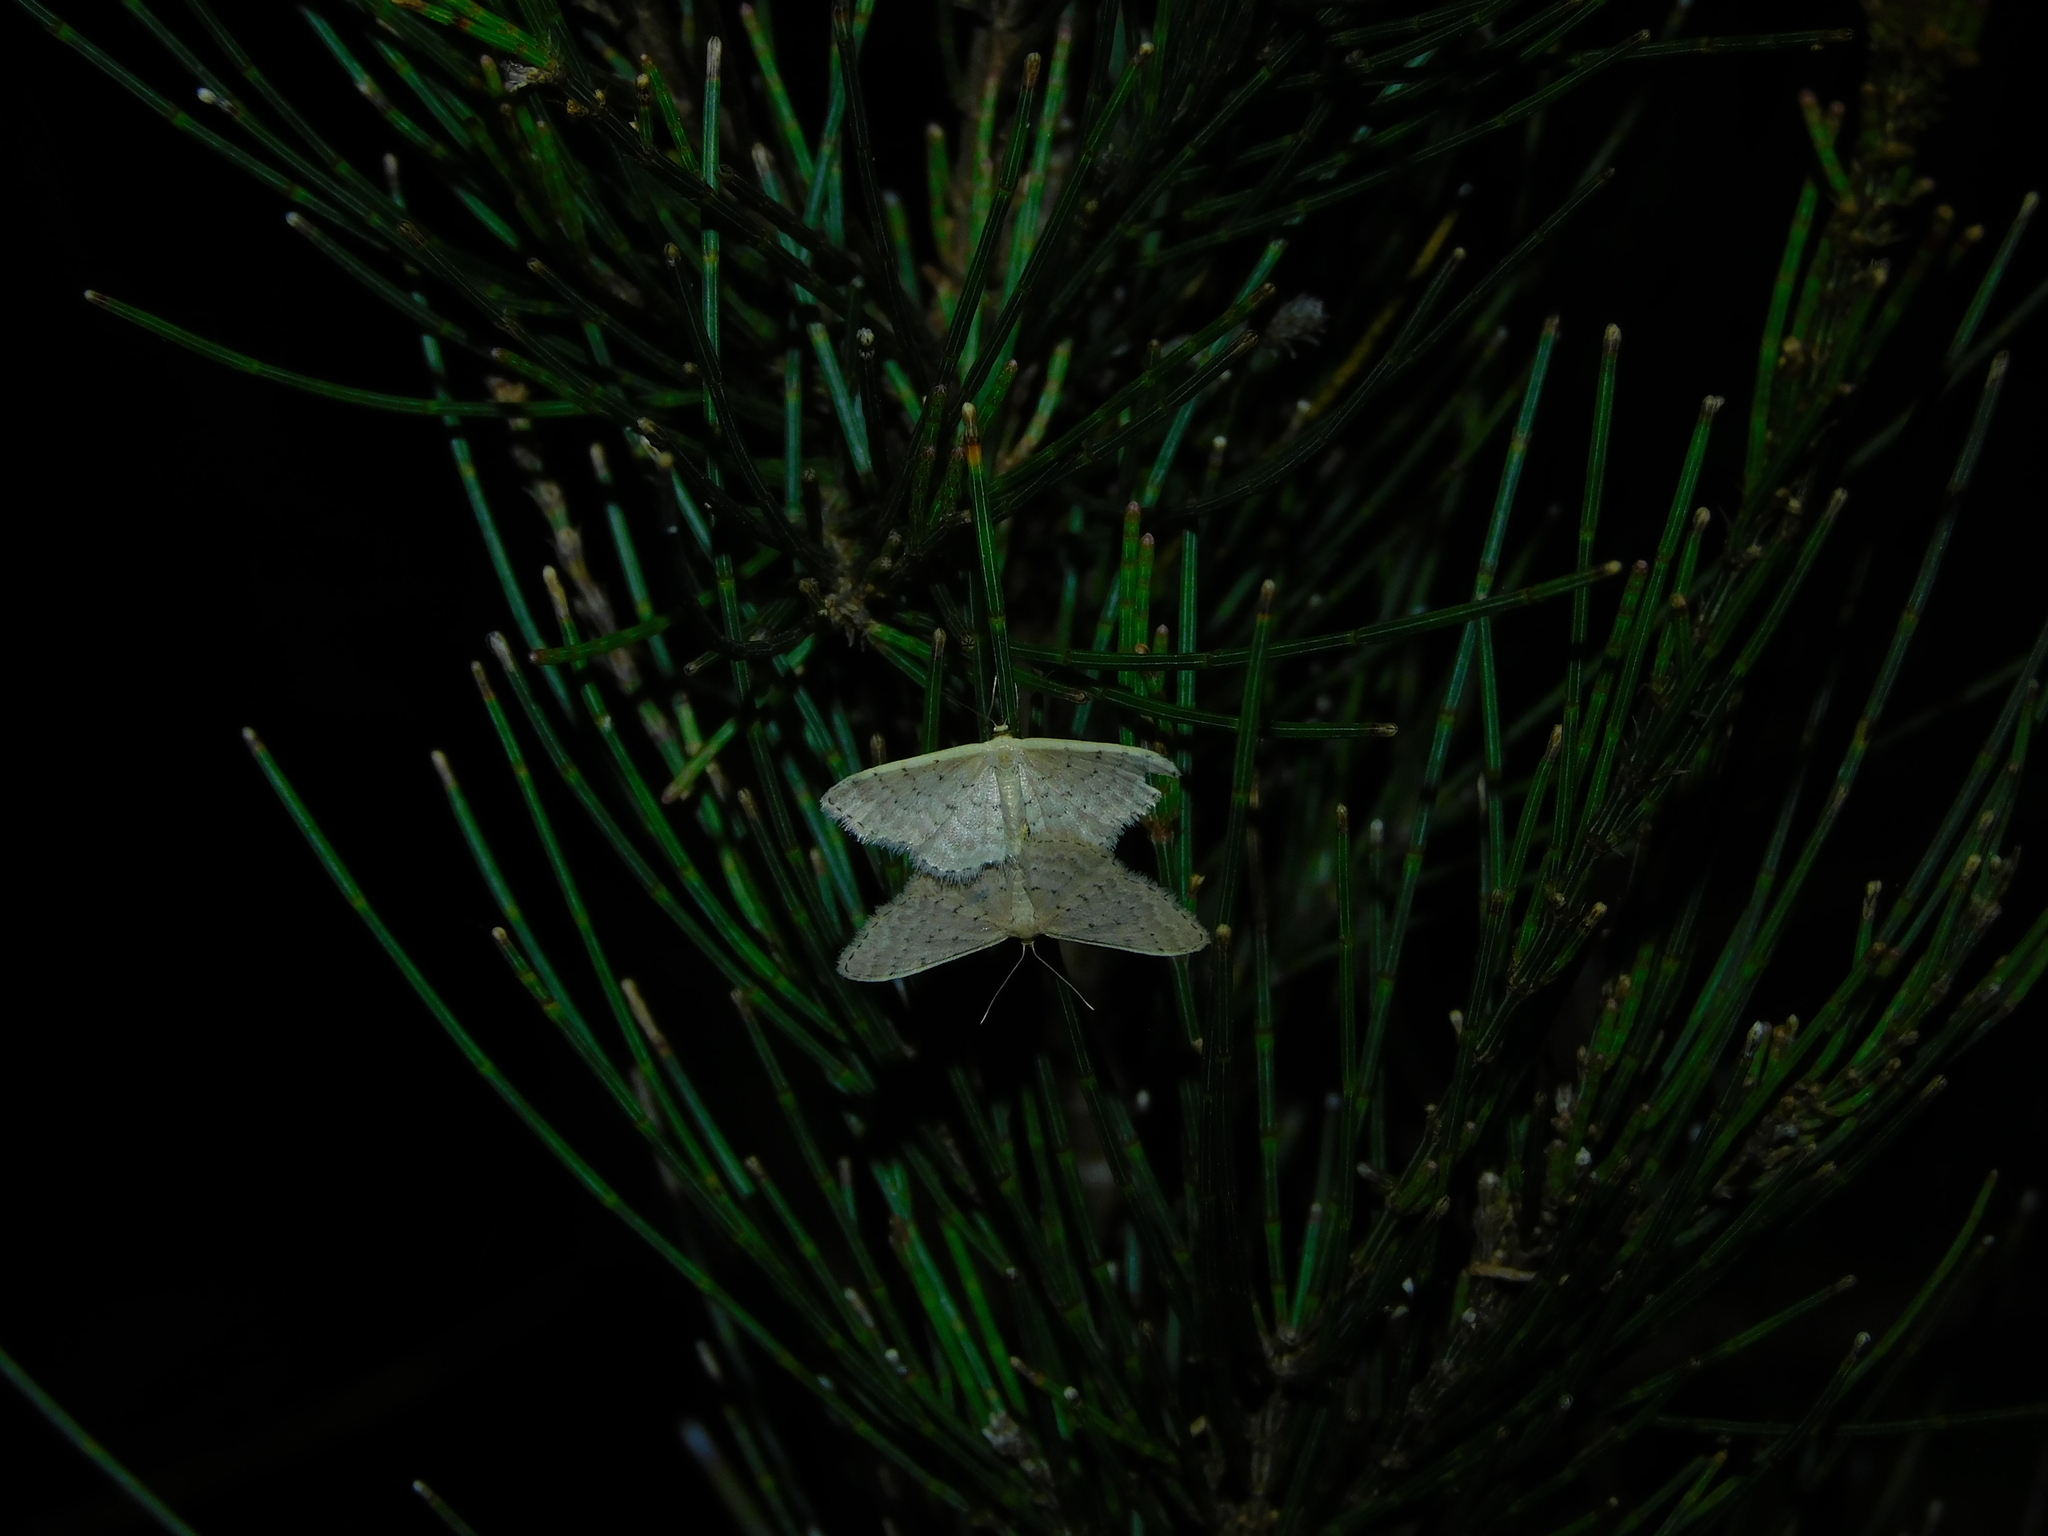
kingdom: Animalia
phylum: Arthropoda
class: Insecta
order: Lepidoptera
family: Geometridae
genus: Idaea
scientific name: Idaea philocosma
